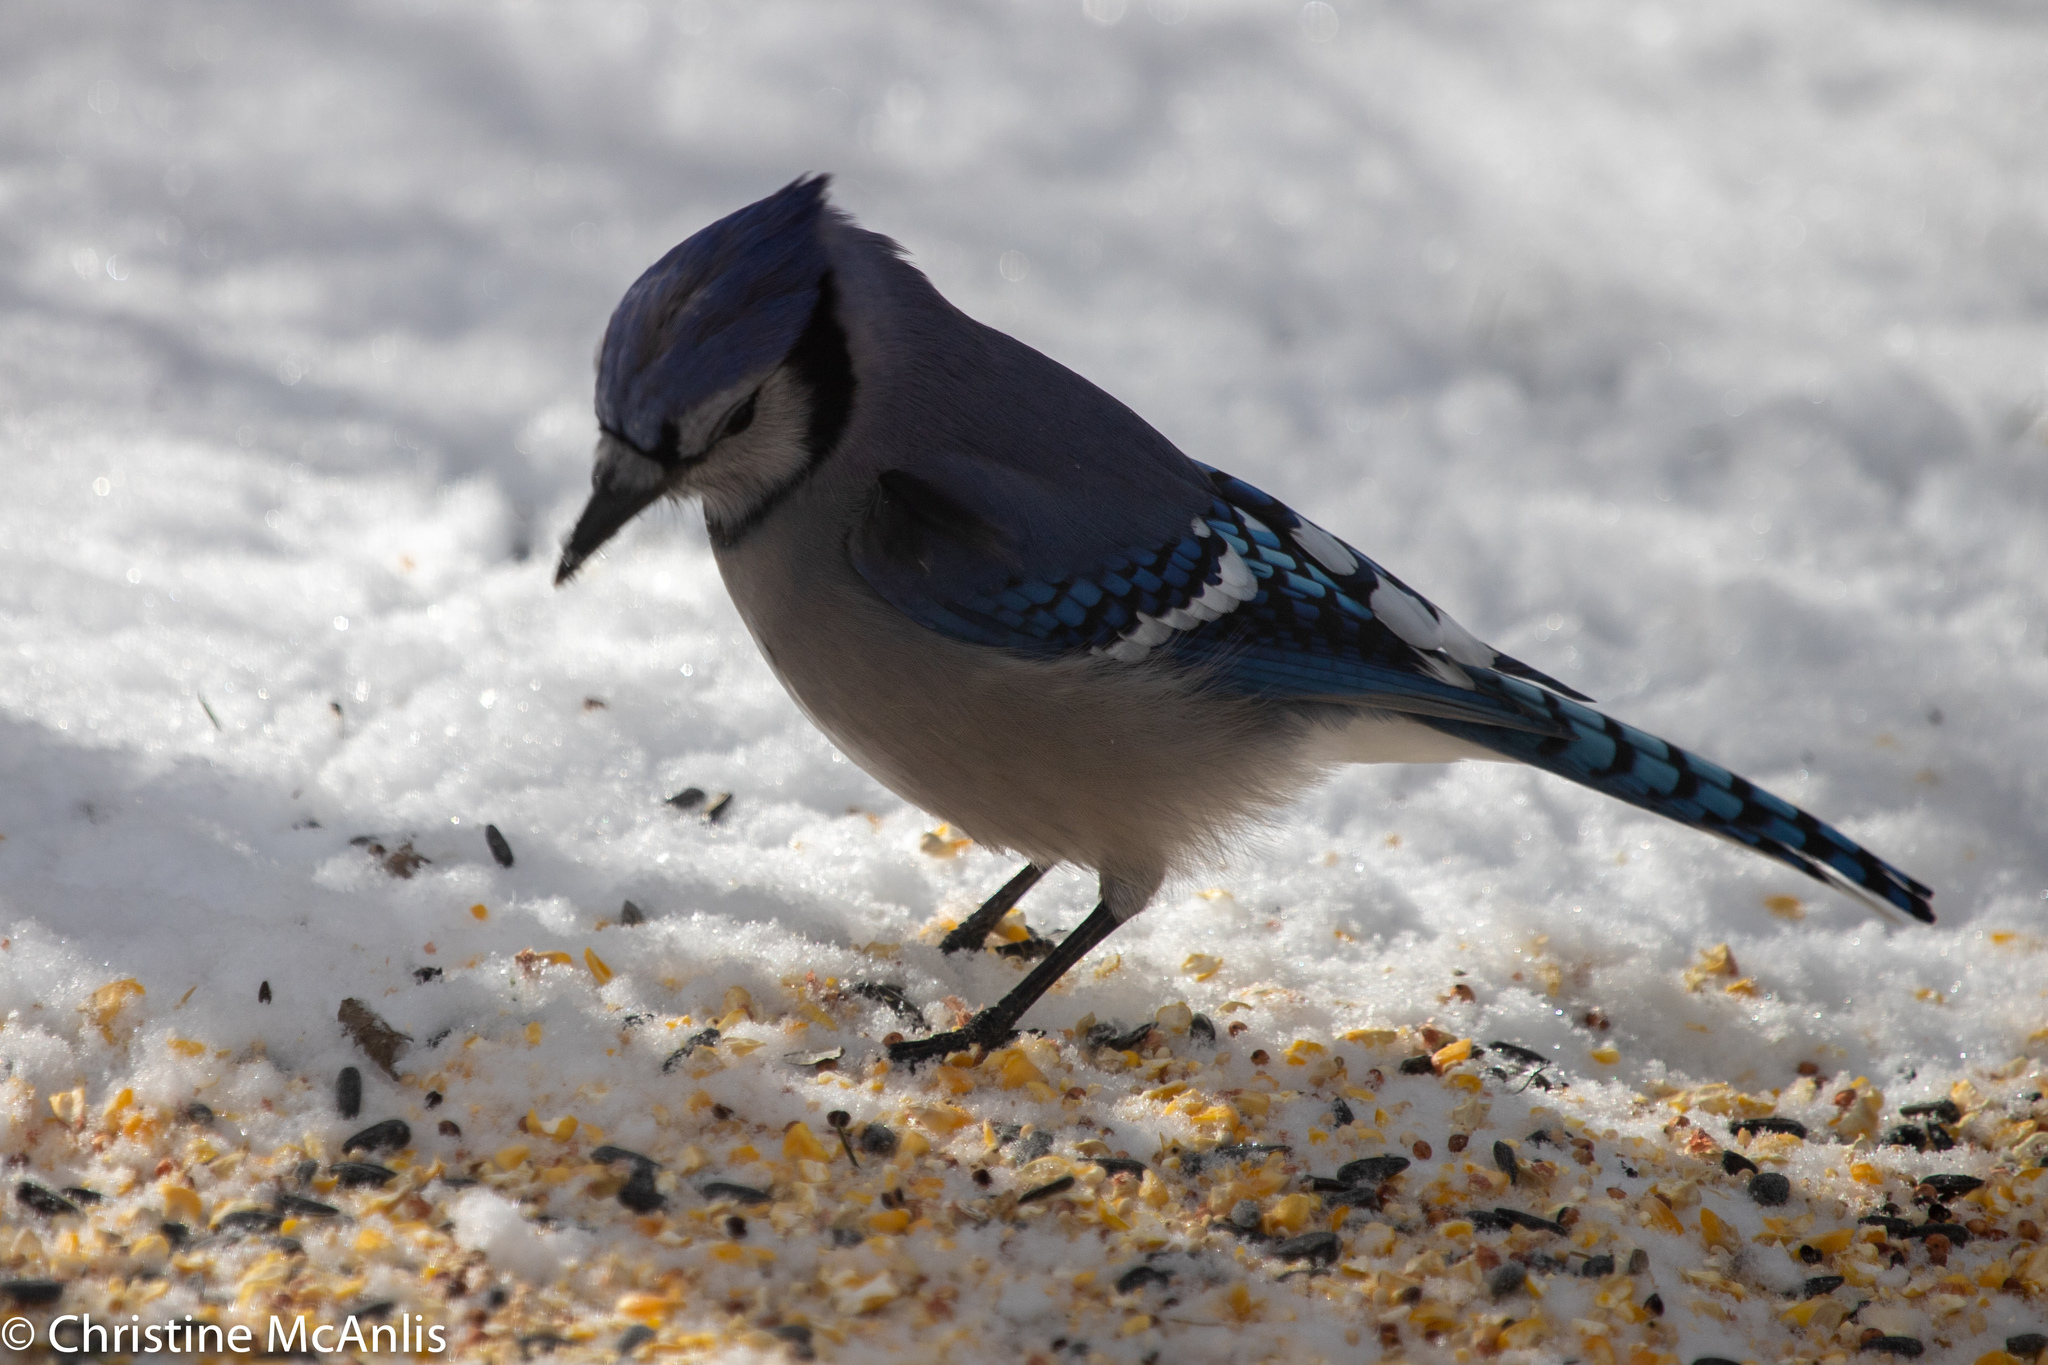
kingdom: Animalia
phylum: Chordata
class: Aves
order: Passeriformes
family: Corvidae
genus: Cyanocitta
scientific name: Cyanocitta cristata
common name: Blue jay
